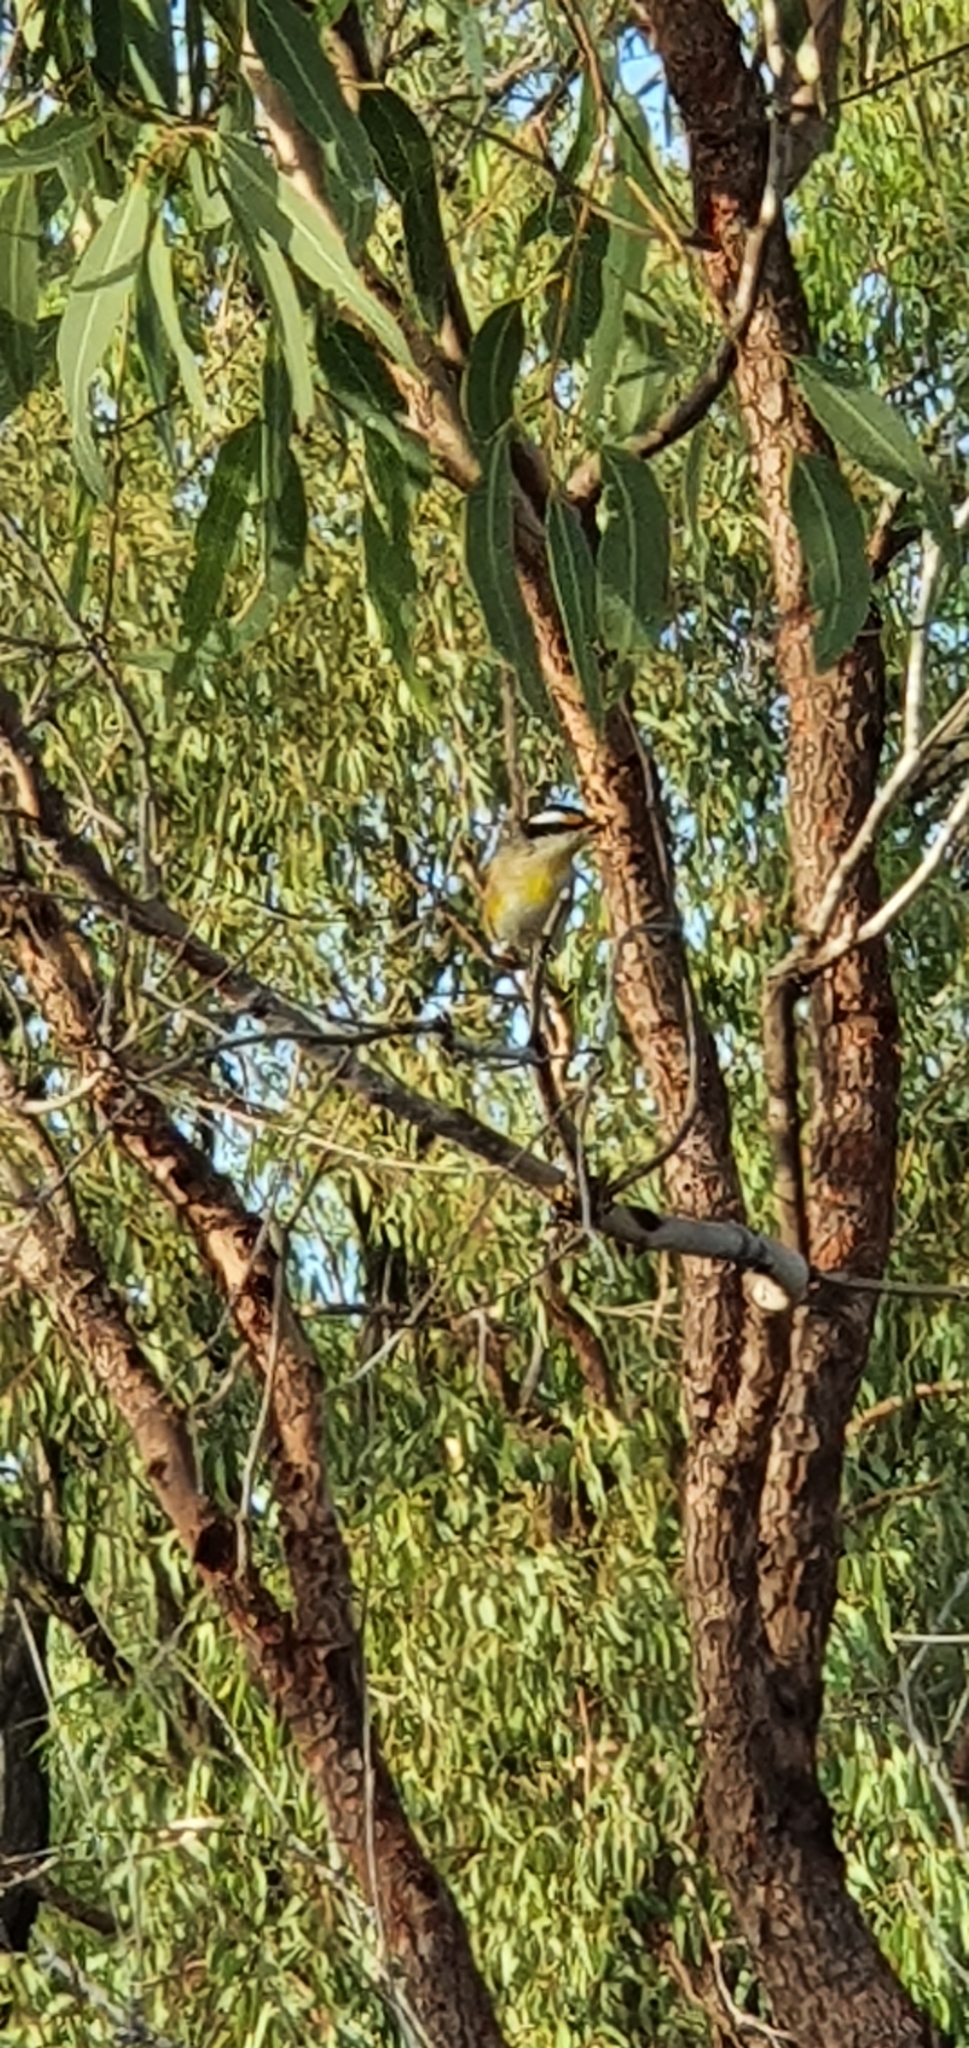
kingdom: Animalia
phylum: Chordata
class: Aves
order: Passeriformes
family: Pardalotidae
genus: Pardalotus
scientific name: Pardalotus striatus
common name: Striated pardalote
